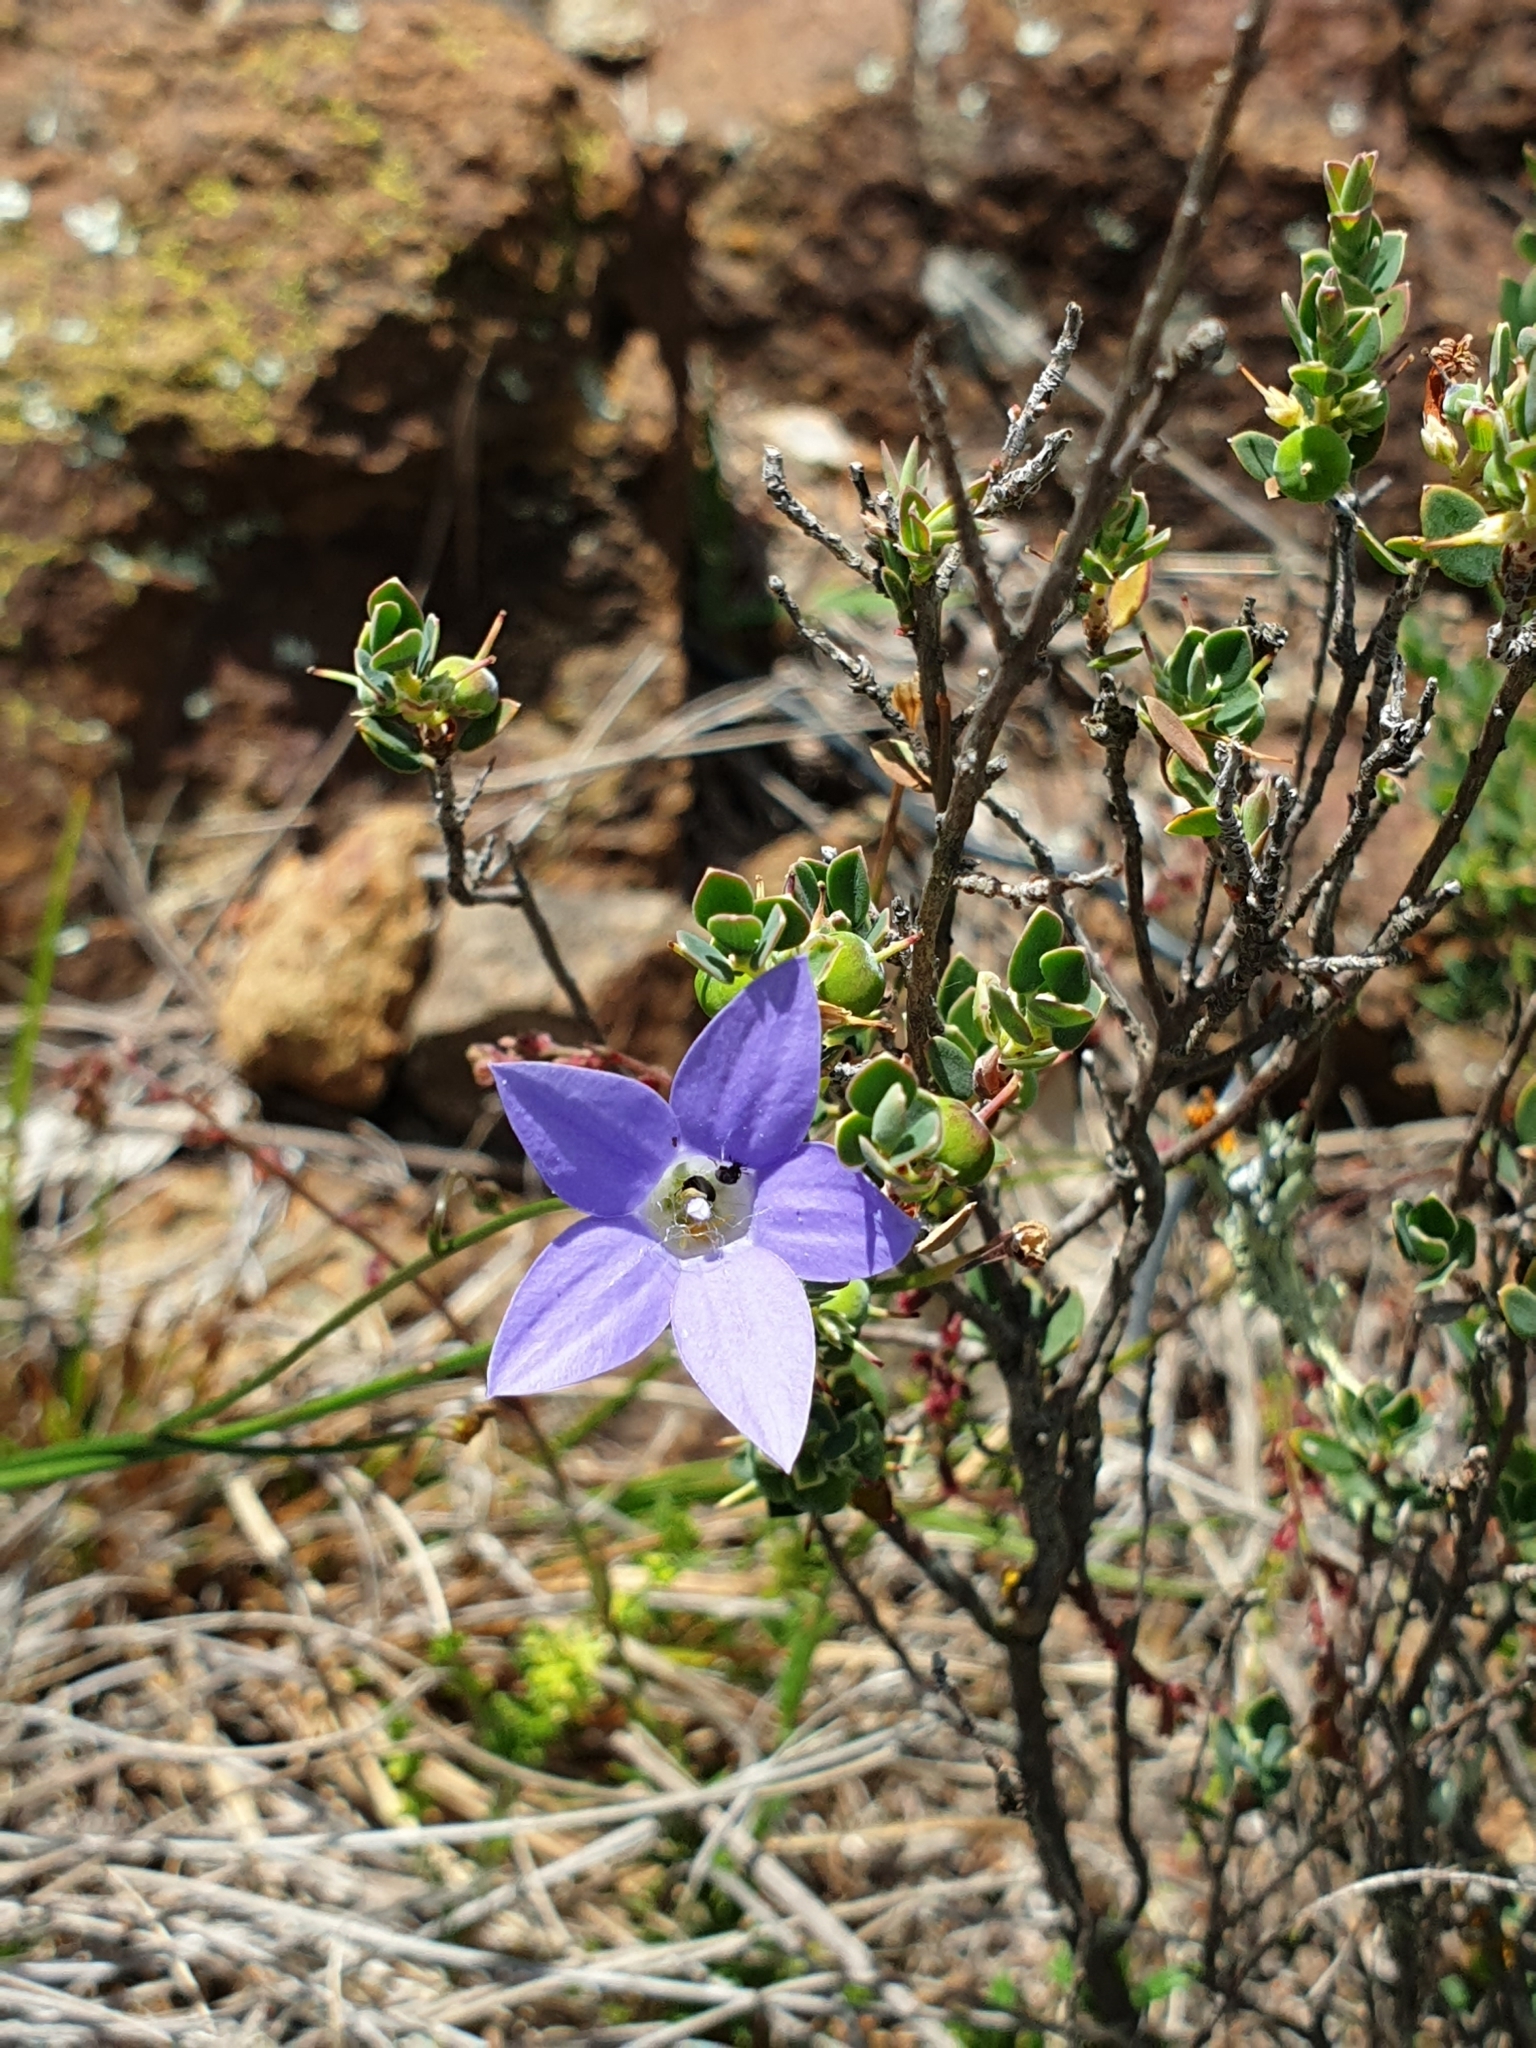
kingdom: Plantae
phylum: Tracheophyta
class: Magnoliopsida
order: Asterales
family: Campanulaceae
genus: Wahlenbergia
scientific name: Wahlenbergia
